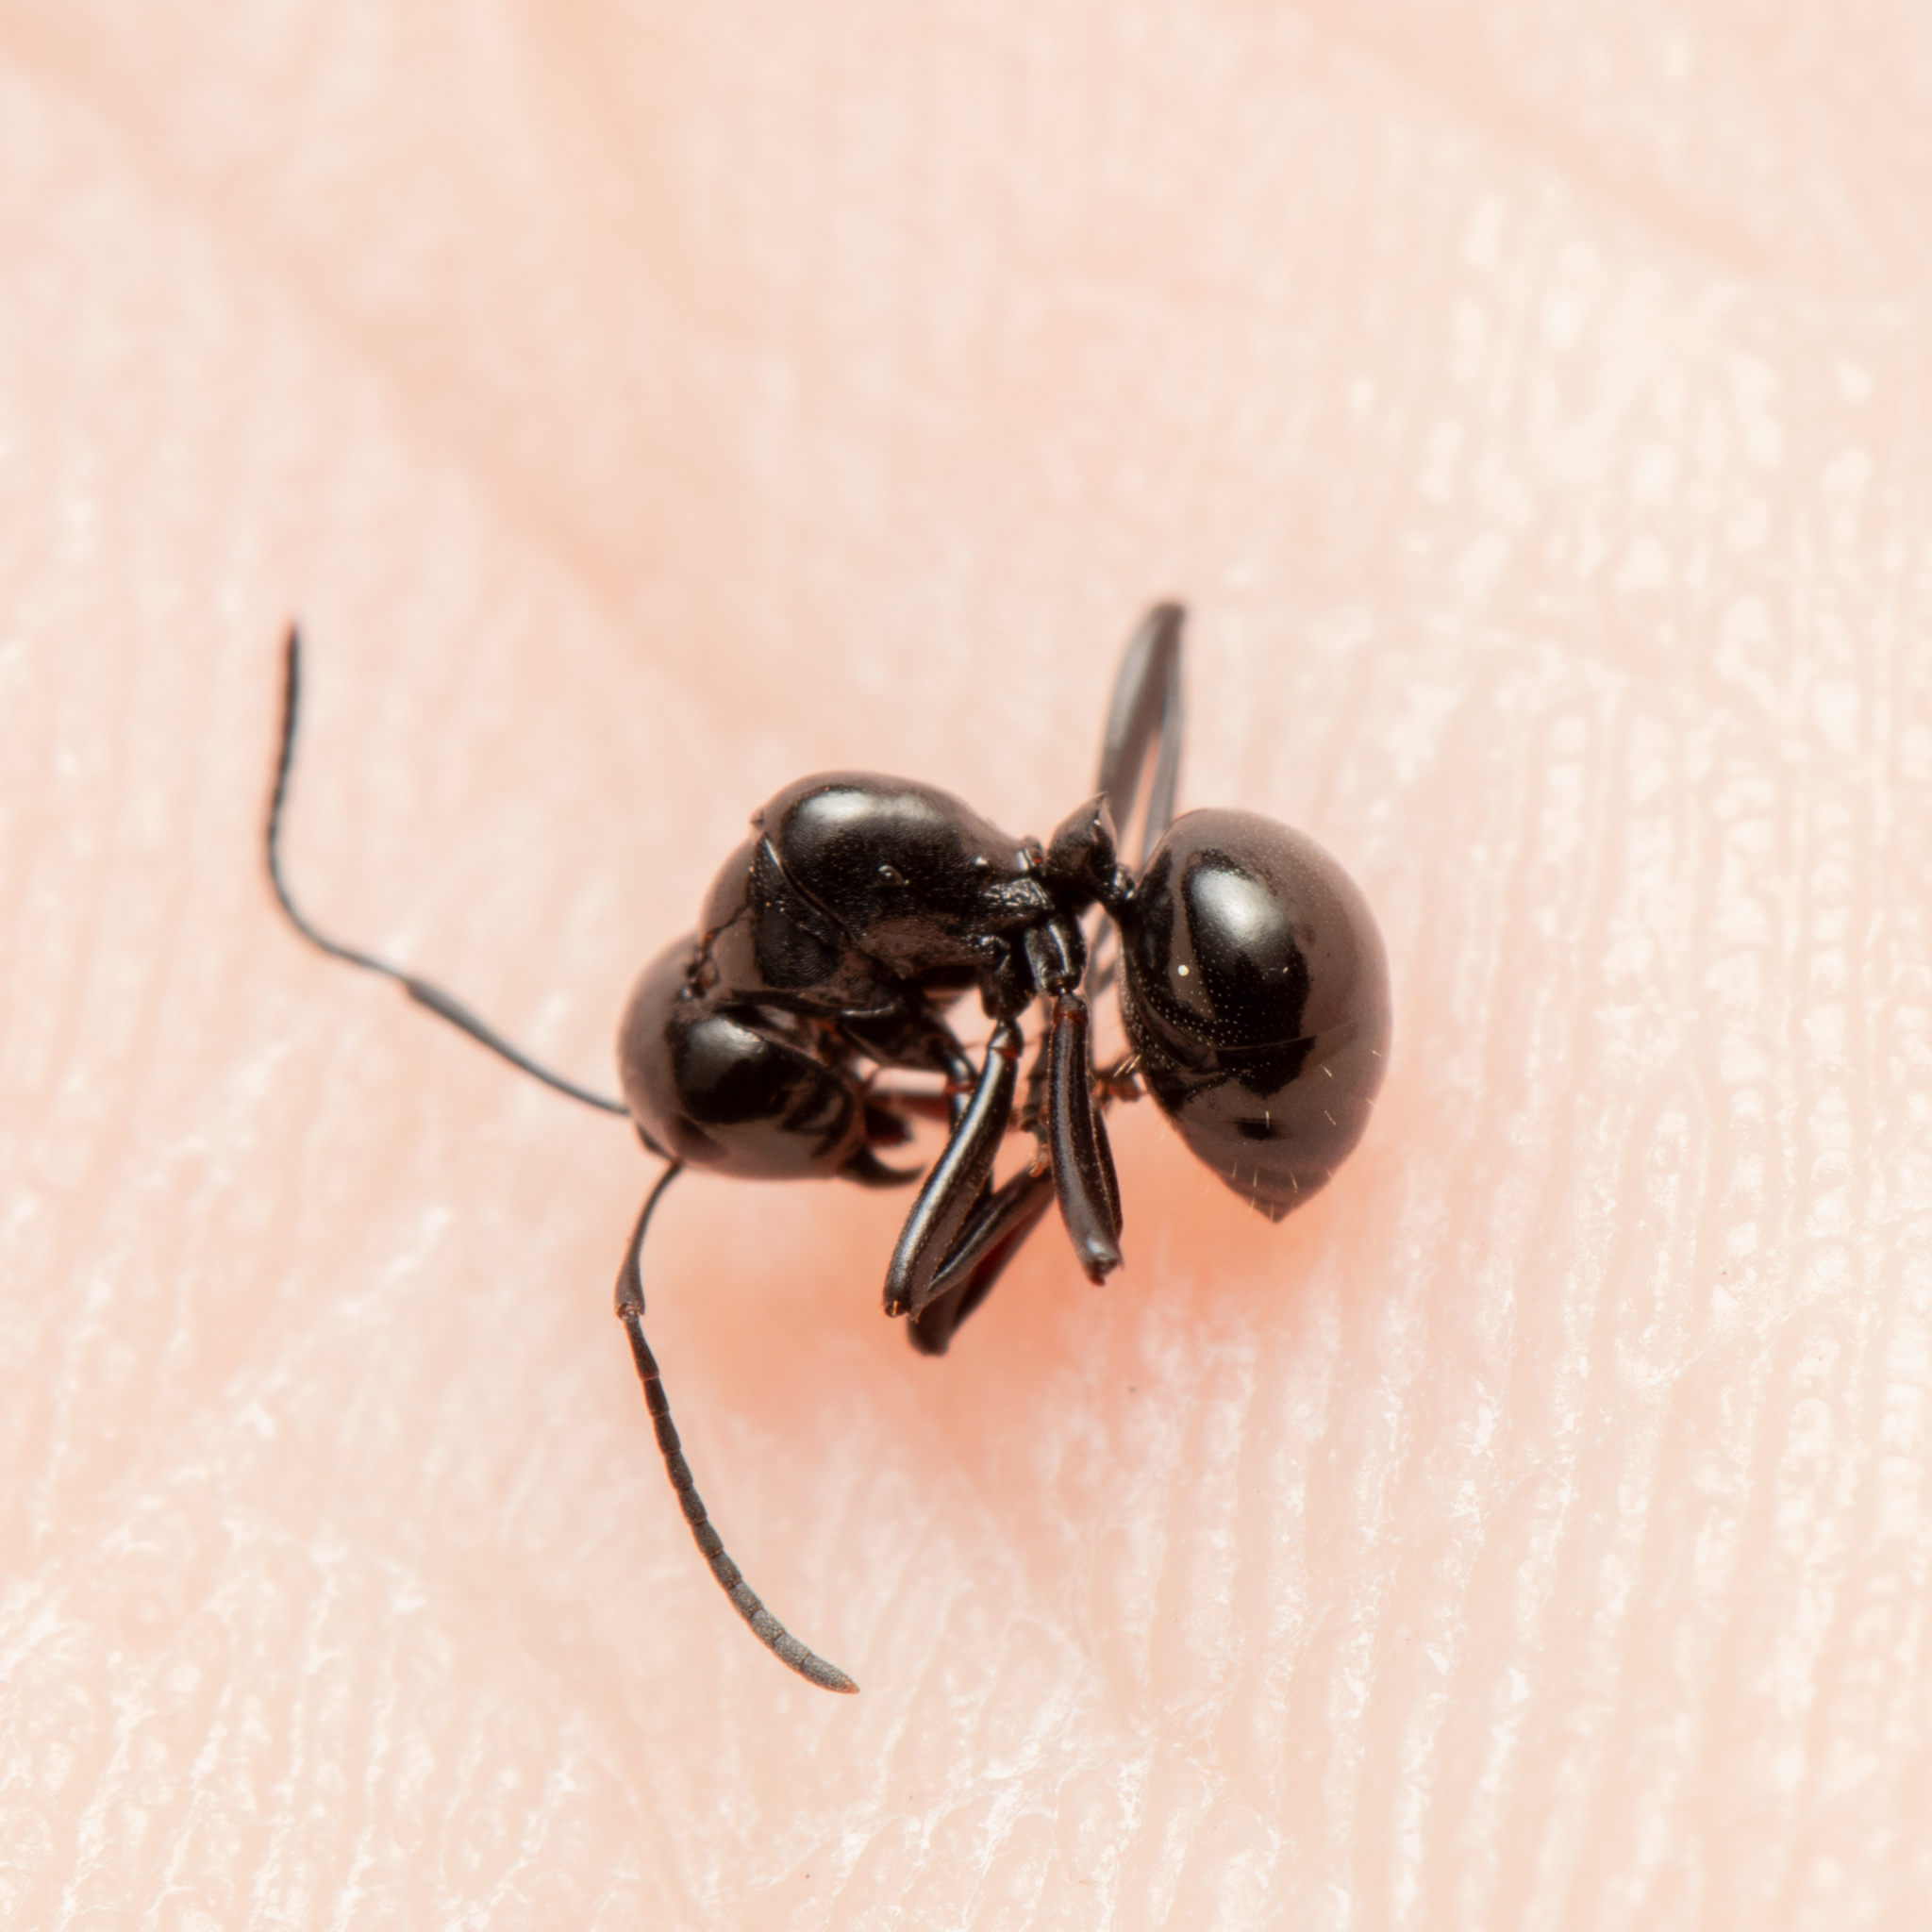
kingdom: Animalia
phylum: Arthropoda
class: Insecta
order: Hymenoptera
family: Formicidae
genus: Polyrhachis
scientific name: Polyrhachis mackayi
